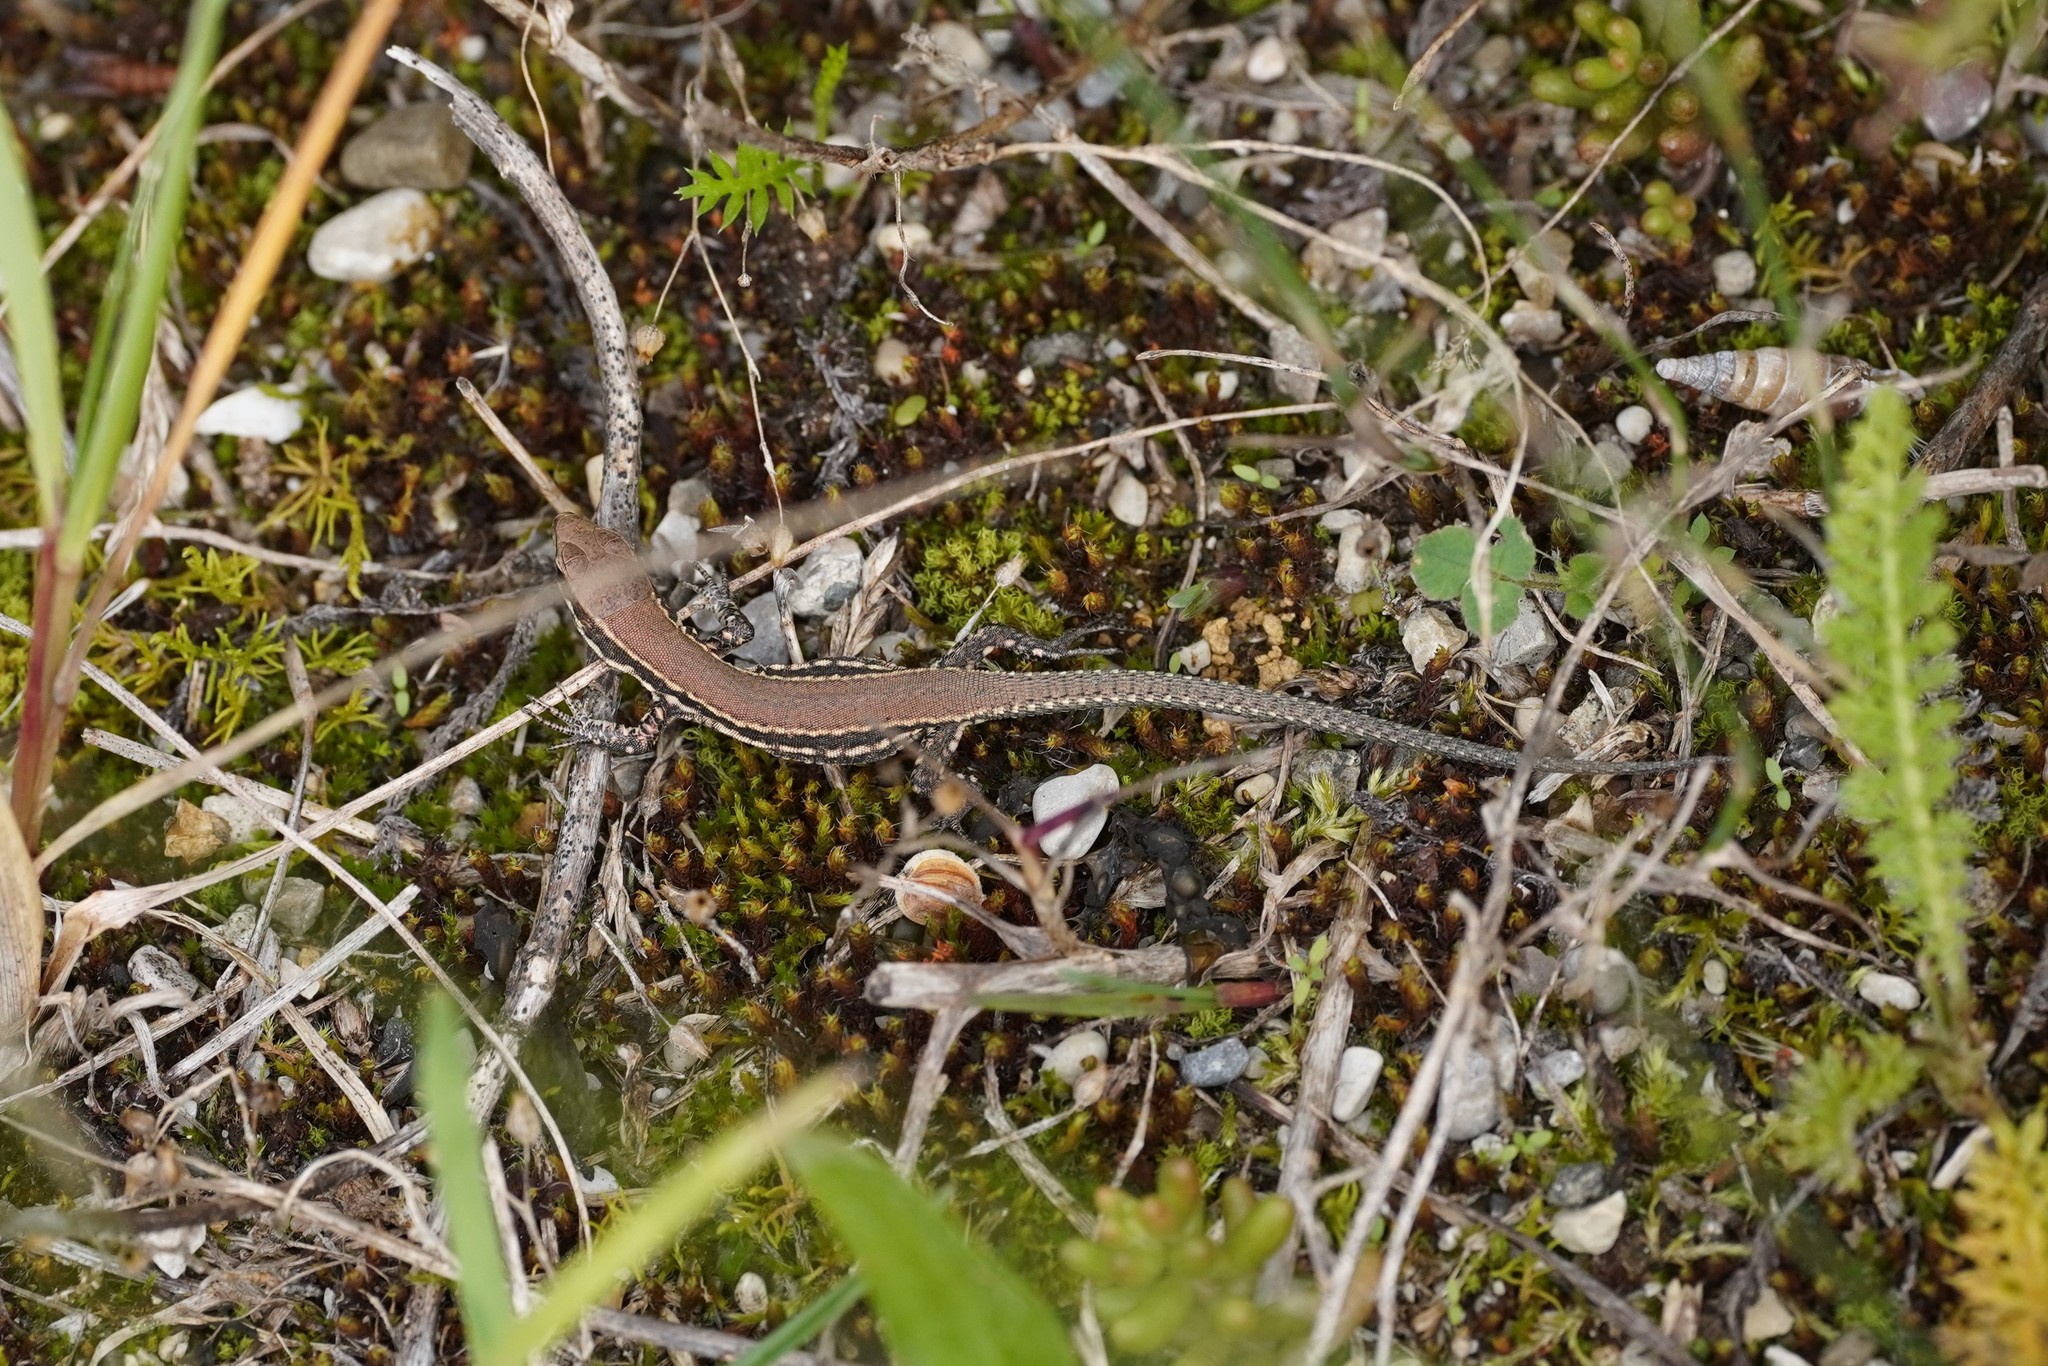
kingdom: Animalia
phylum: Chordata
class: Squamata
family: Lacertidae
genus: Podarcis
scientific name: Podarcis muralis
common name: Common wall lizard
